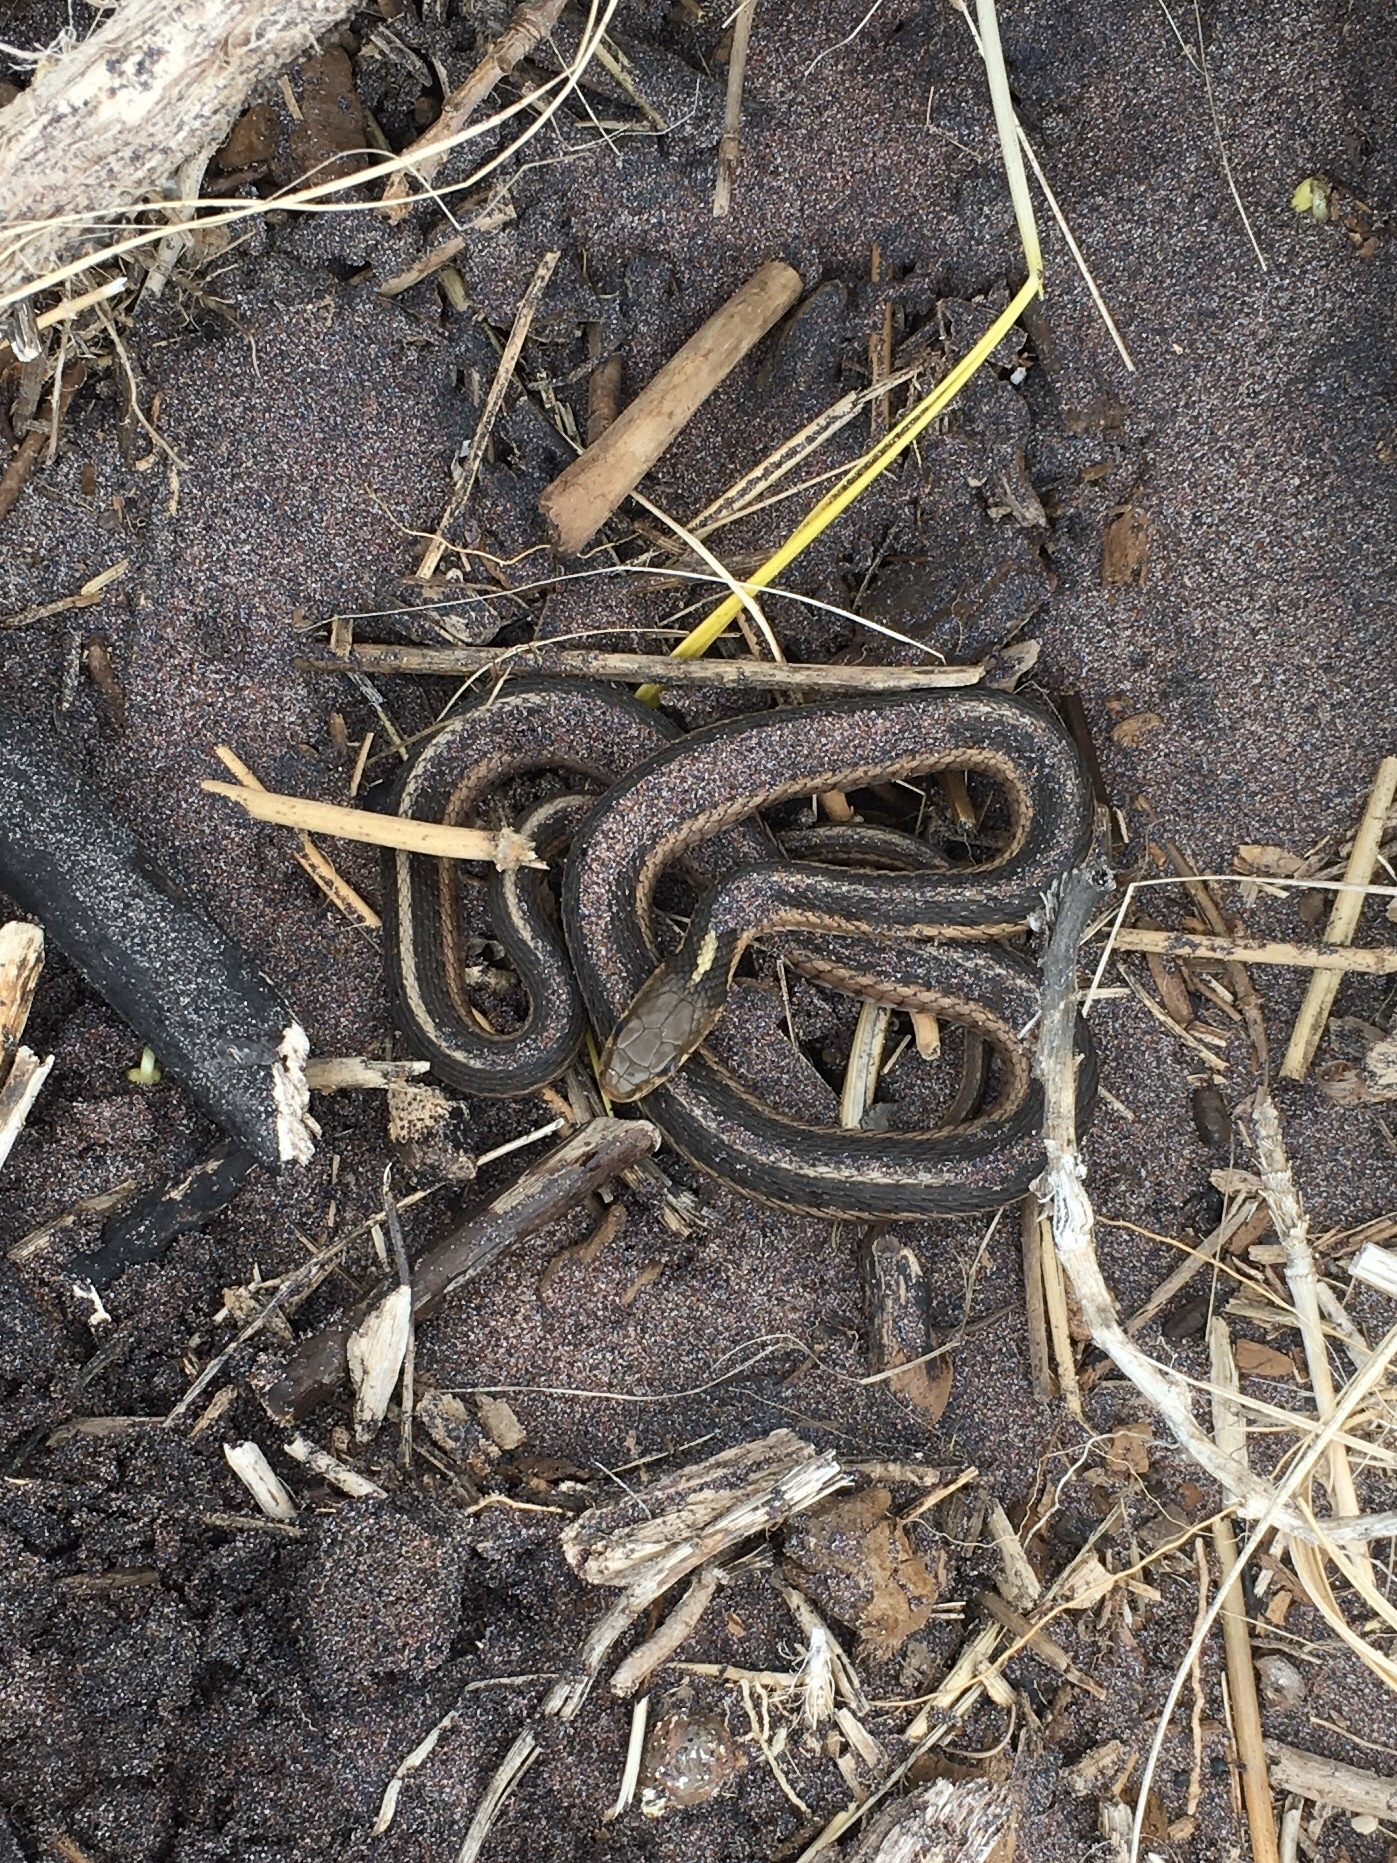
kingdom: Animalia
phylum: Chordata
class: Squamata
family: Colubridae
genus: Thamnophis
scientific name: Thamnophis sirtalis
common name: Common garter snake
